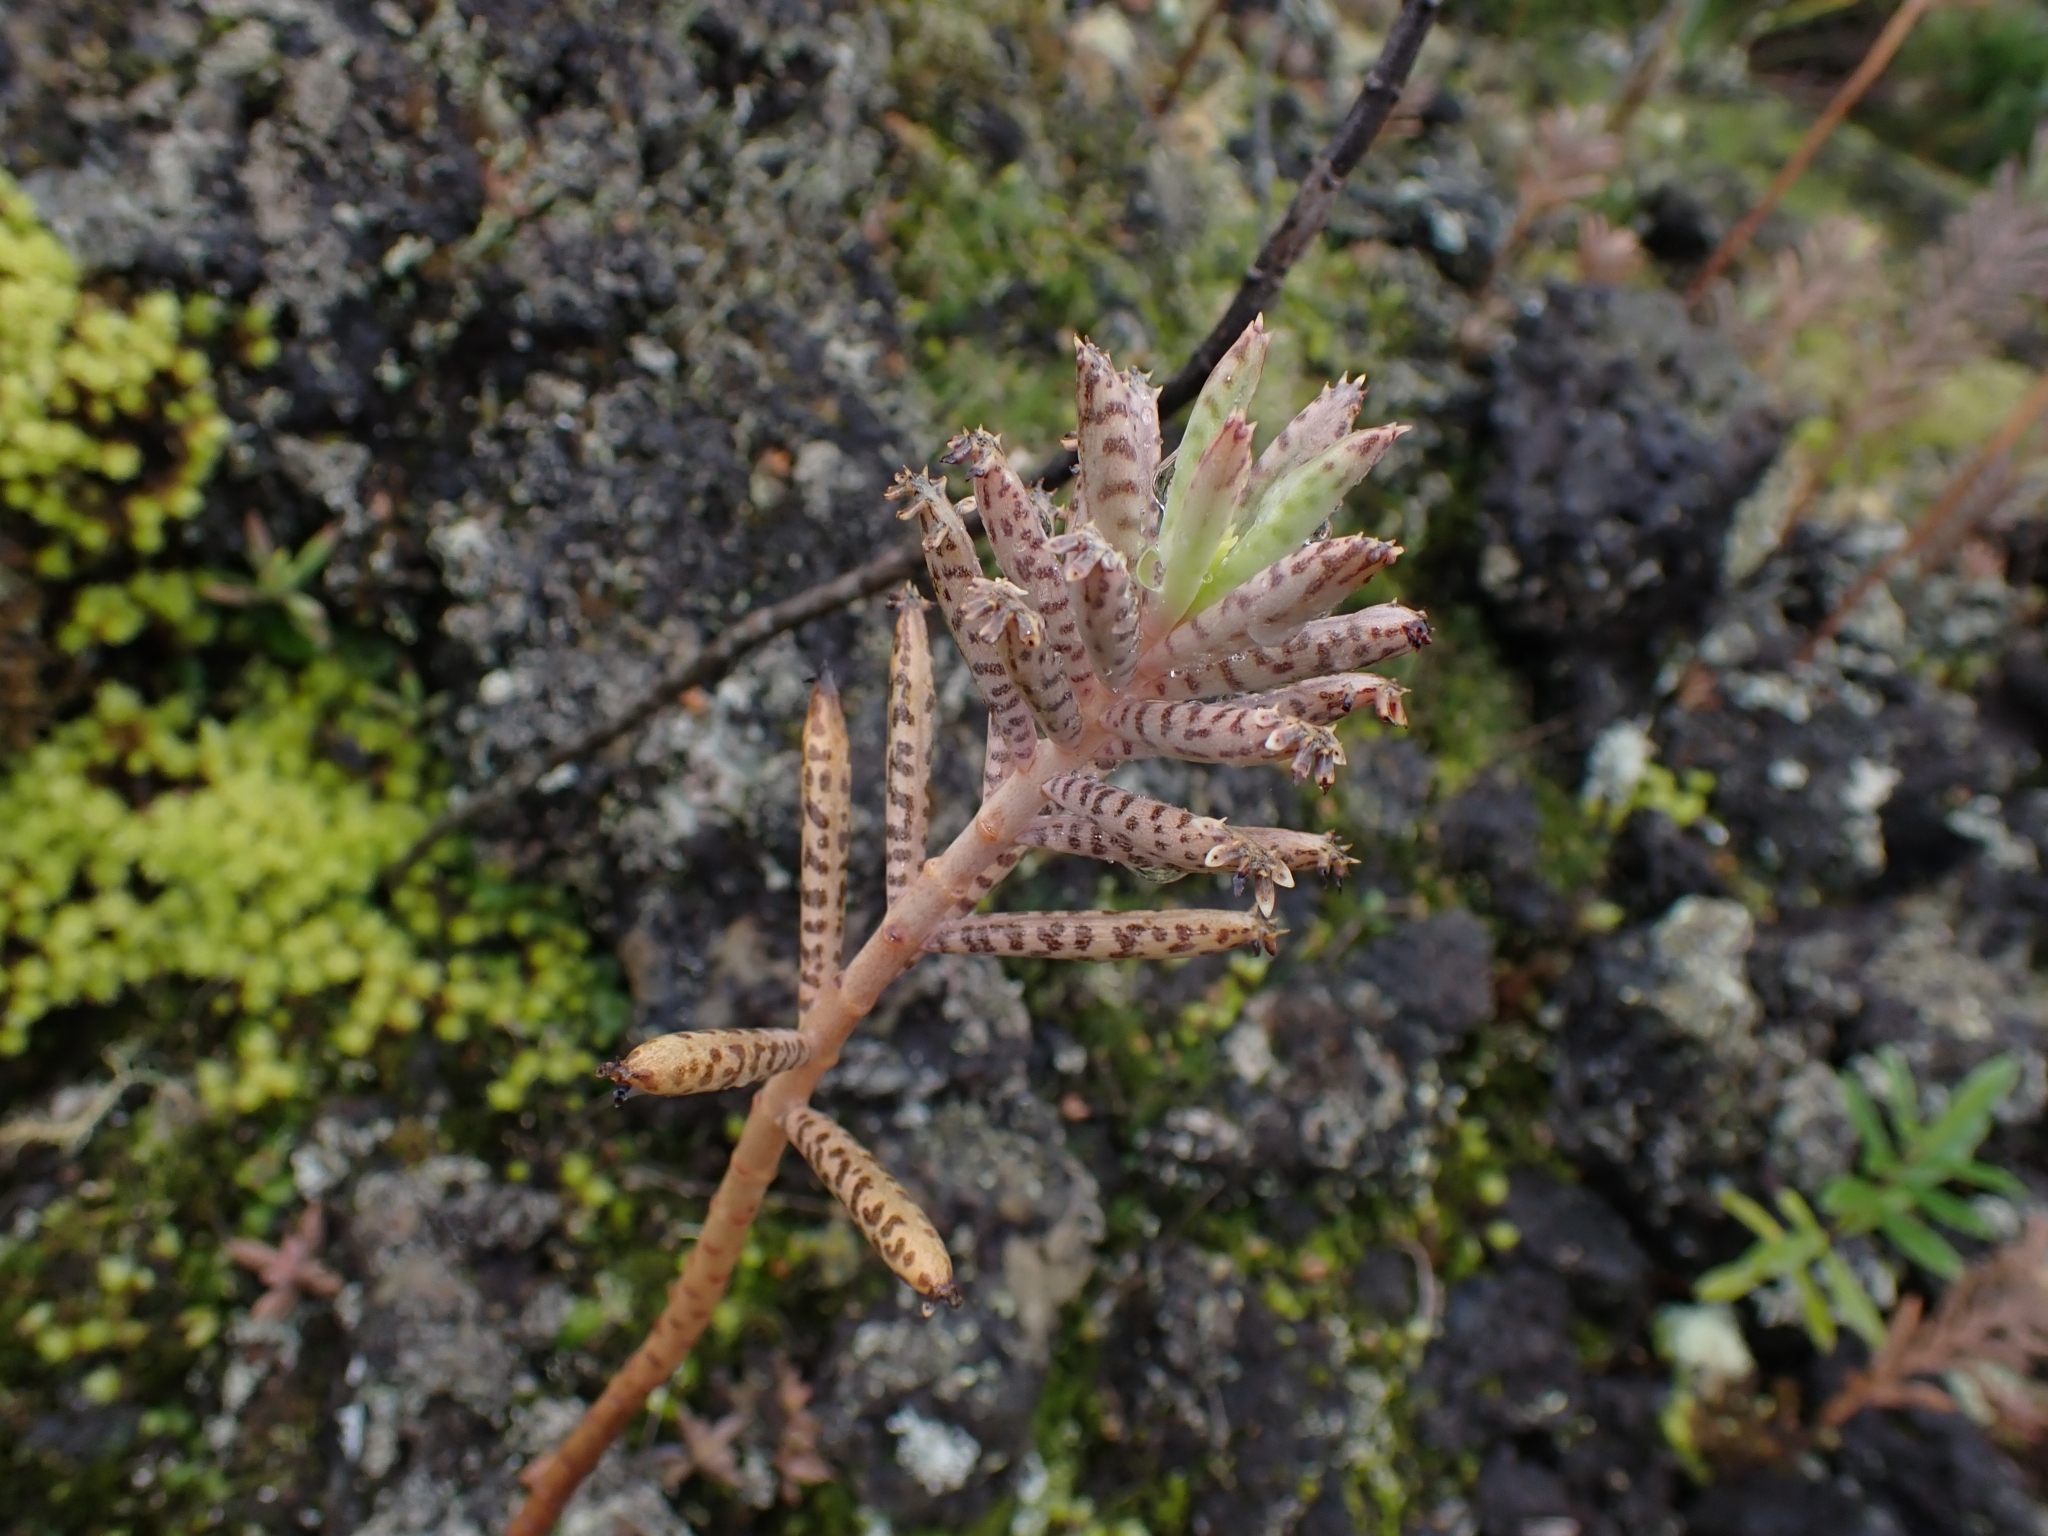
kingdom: Plantae
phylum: Tracheophyta
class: Magnoliopsida
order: Saxifragales
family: Crassulaceae
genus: Kalanchoe
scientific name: Kalanchoe delagoensis
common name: Chandelier plant
